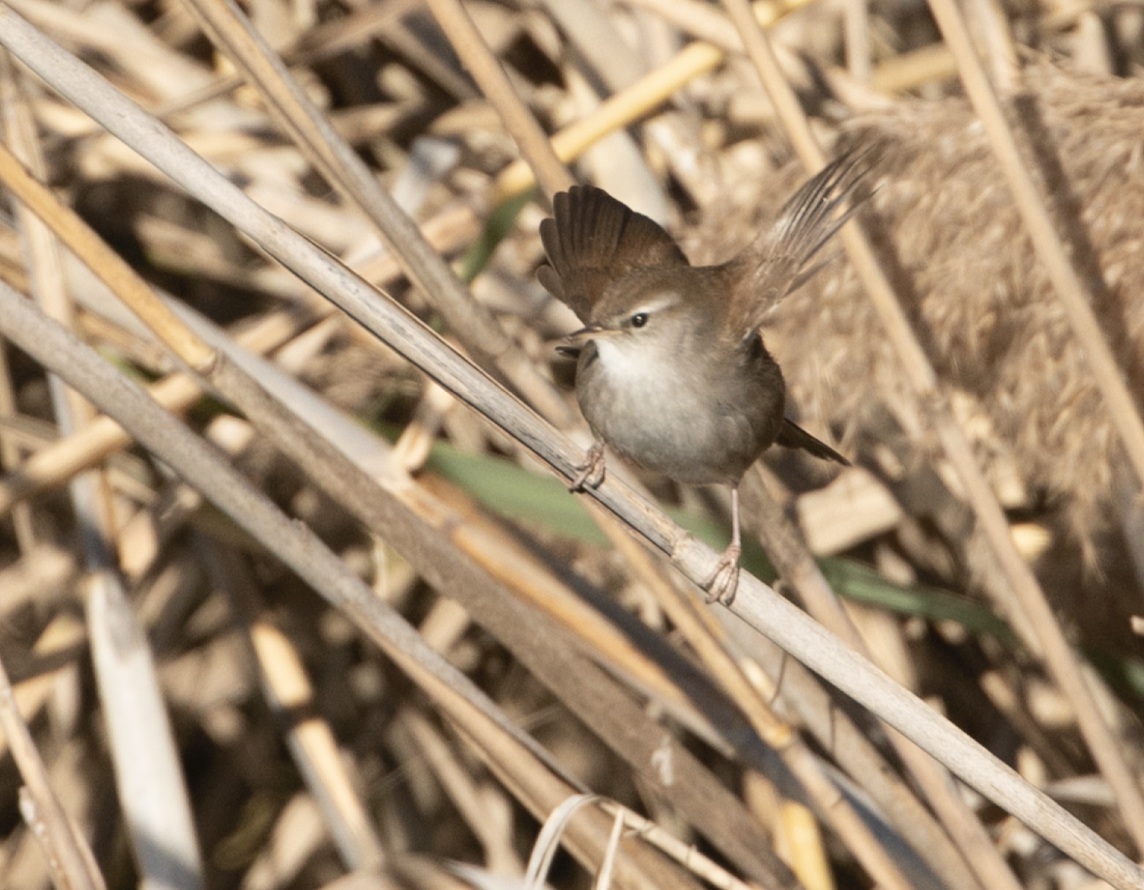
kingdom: Animalia
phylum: Chordata
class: Aves
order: Passeriformes
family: Cettiidae
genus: Cettia
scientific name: Cettia cetti
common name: Cetti's warbler
